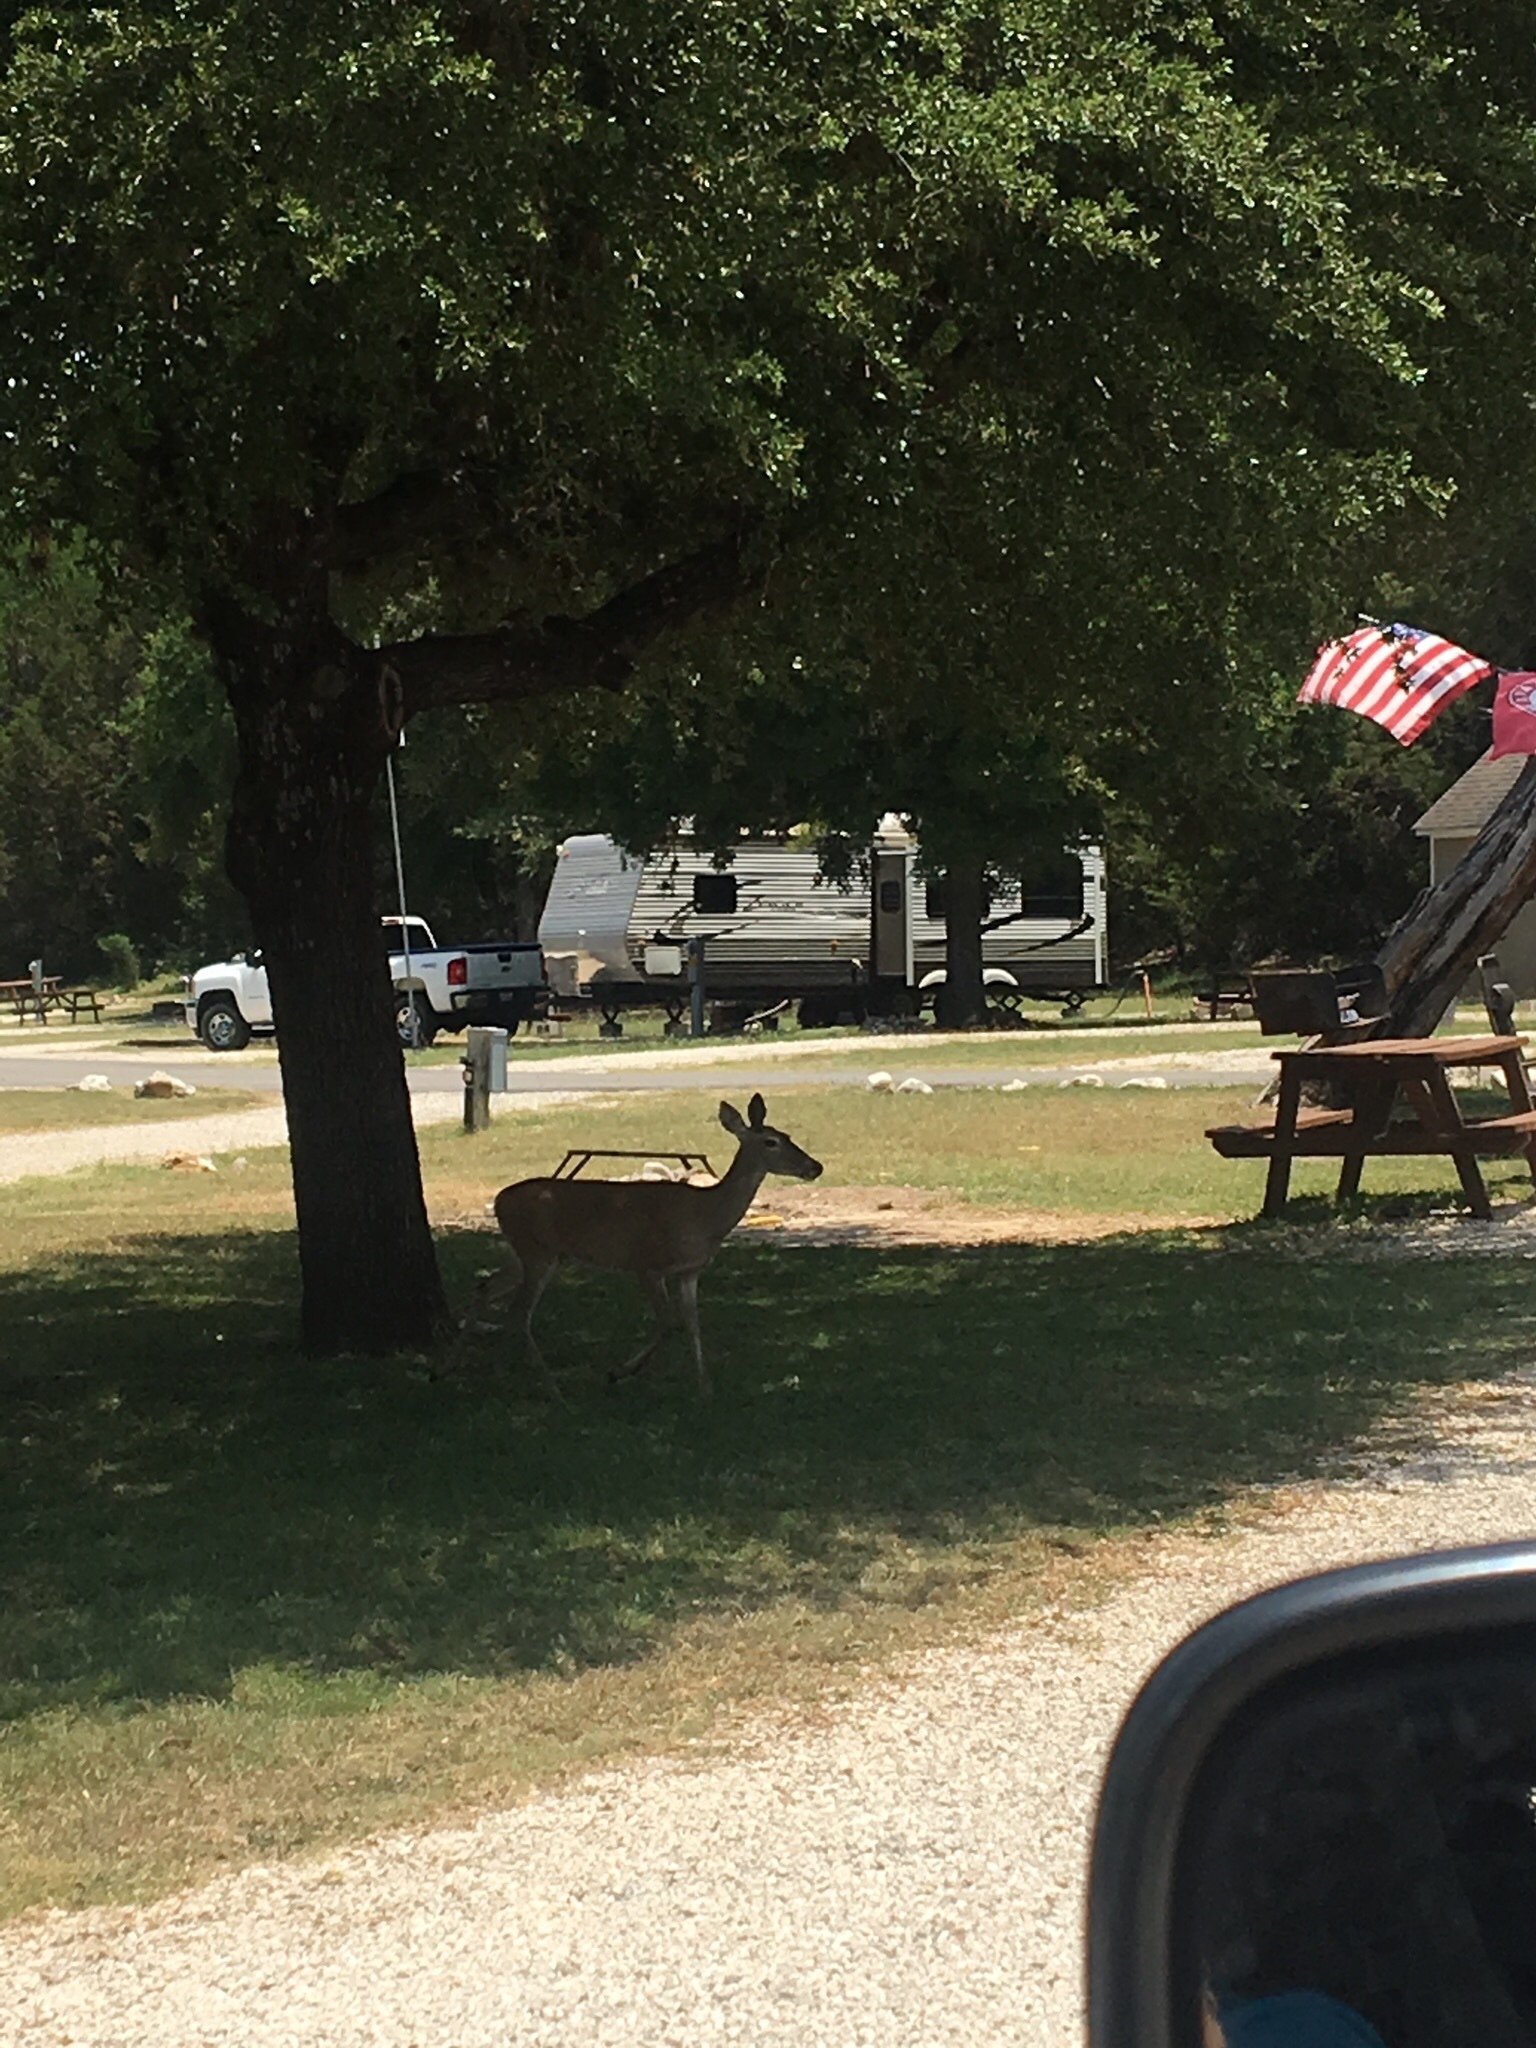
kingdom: Animalia
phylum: Chordata
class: Mammalia
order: Artiodactyla
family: Cervidae
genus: Odocoileus
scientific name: Odocoileus virginianus
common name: White-tailed deer
